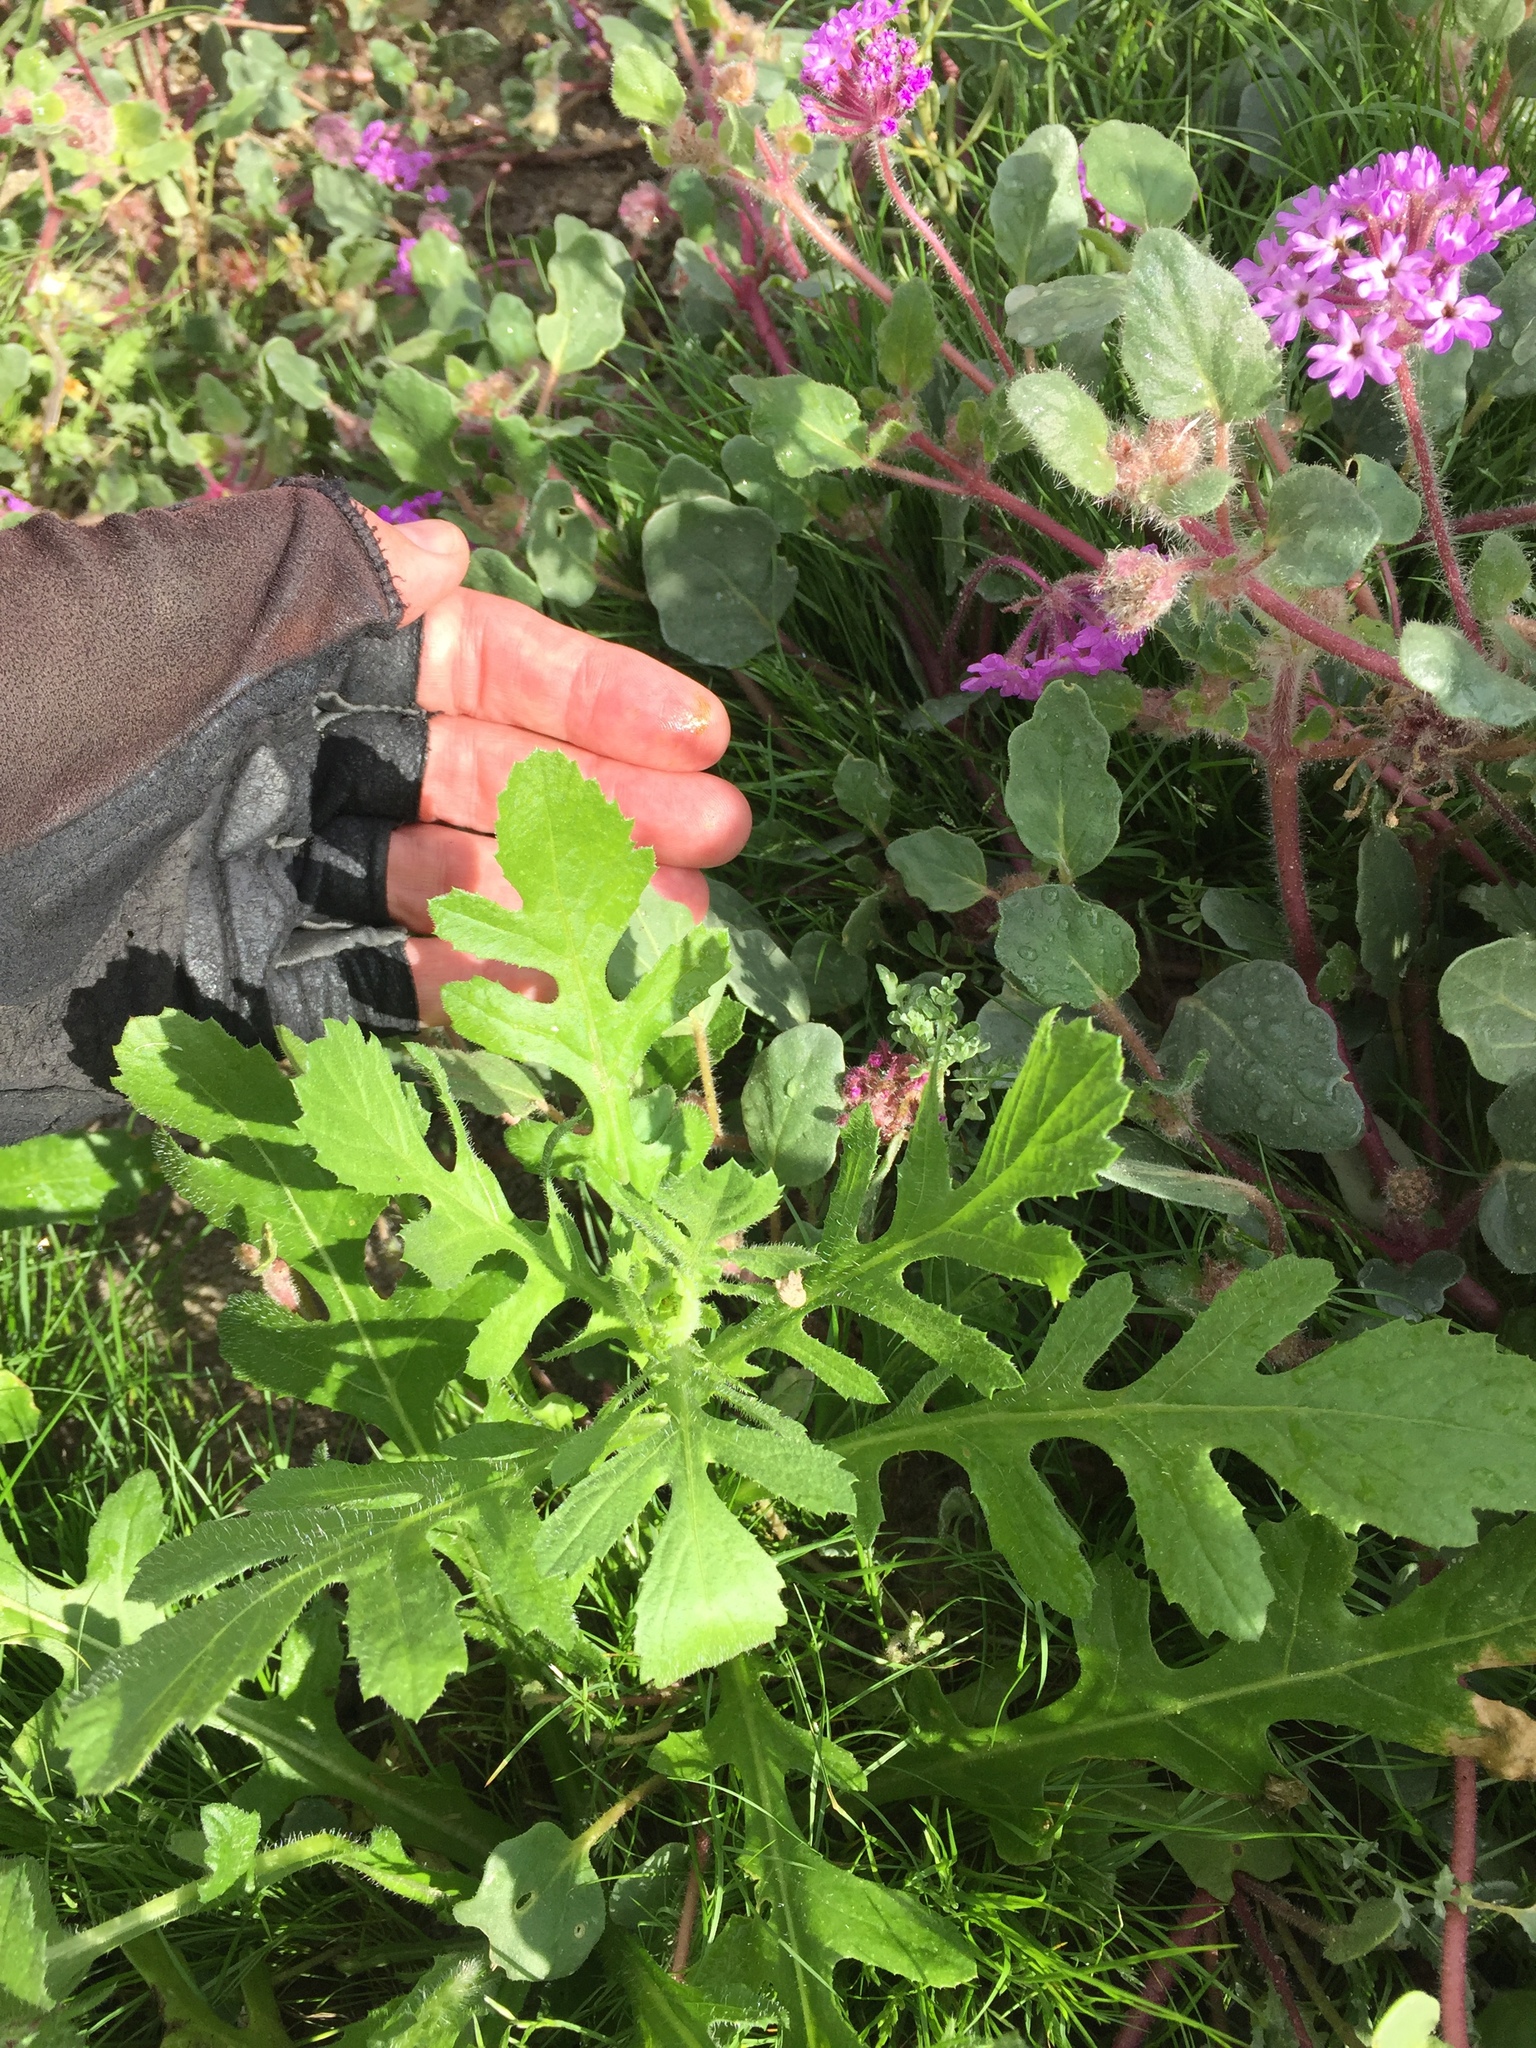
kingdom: Plantae
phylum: Tracheophyta
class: Magnoliopsida
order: Asterales
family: Asteraceae
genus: Volutaria
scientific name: Volutaria tubuliflora
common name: Desert knapweed
